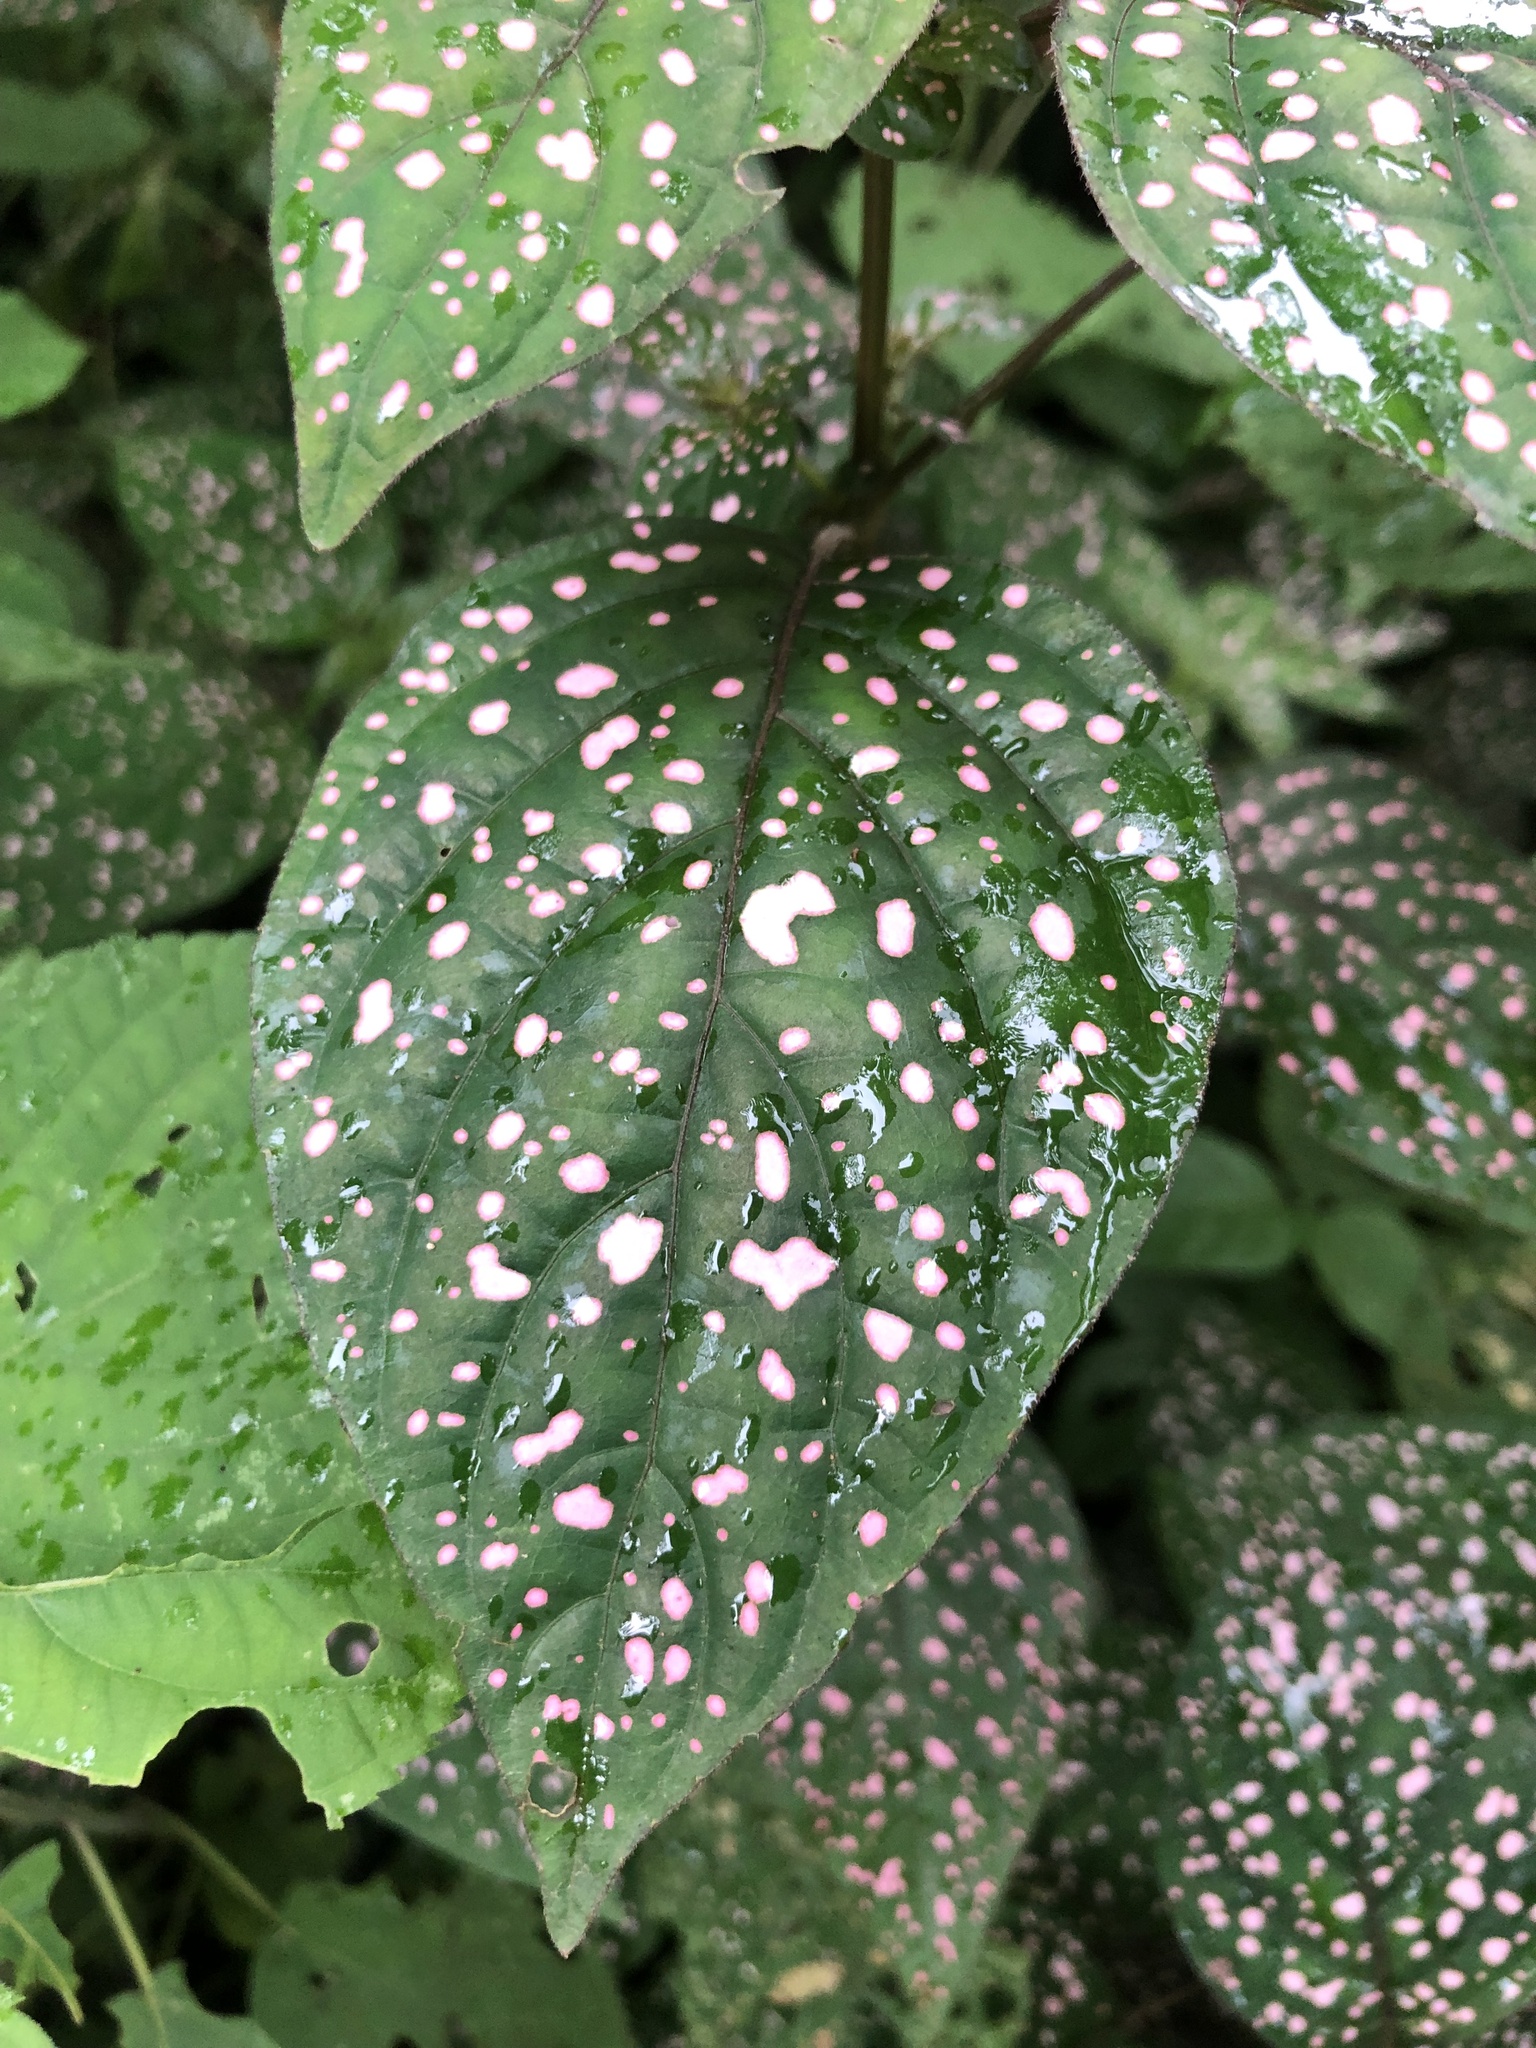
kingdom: Plantae
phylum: Tracheophyta
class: Magnoliopsida
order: Lamiales
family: Acanthaceae
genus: Hypoestes
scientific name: Hypoestes phyllostachya
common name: Polkadot-plant
